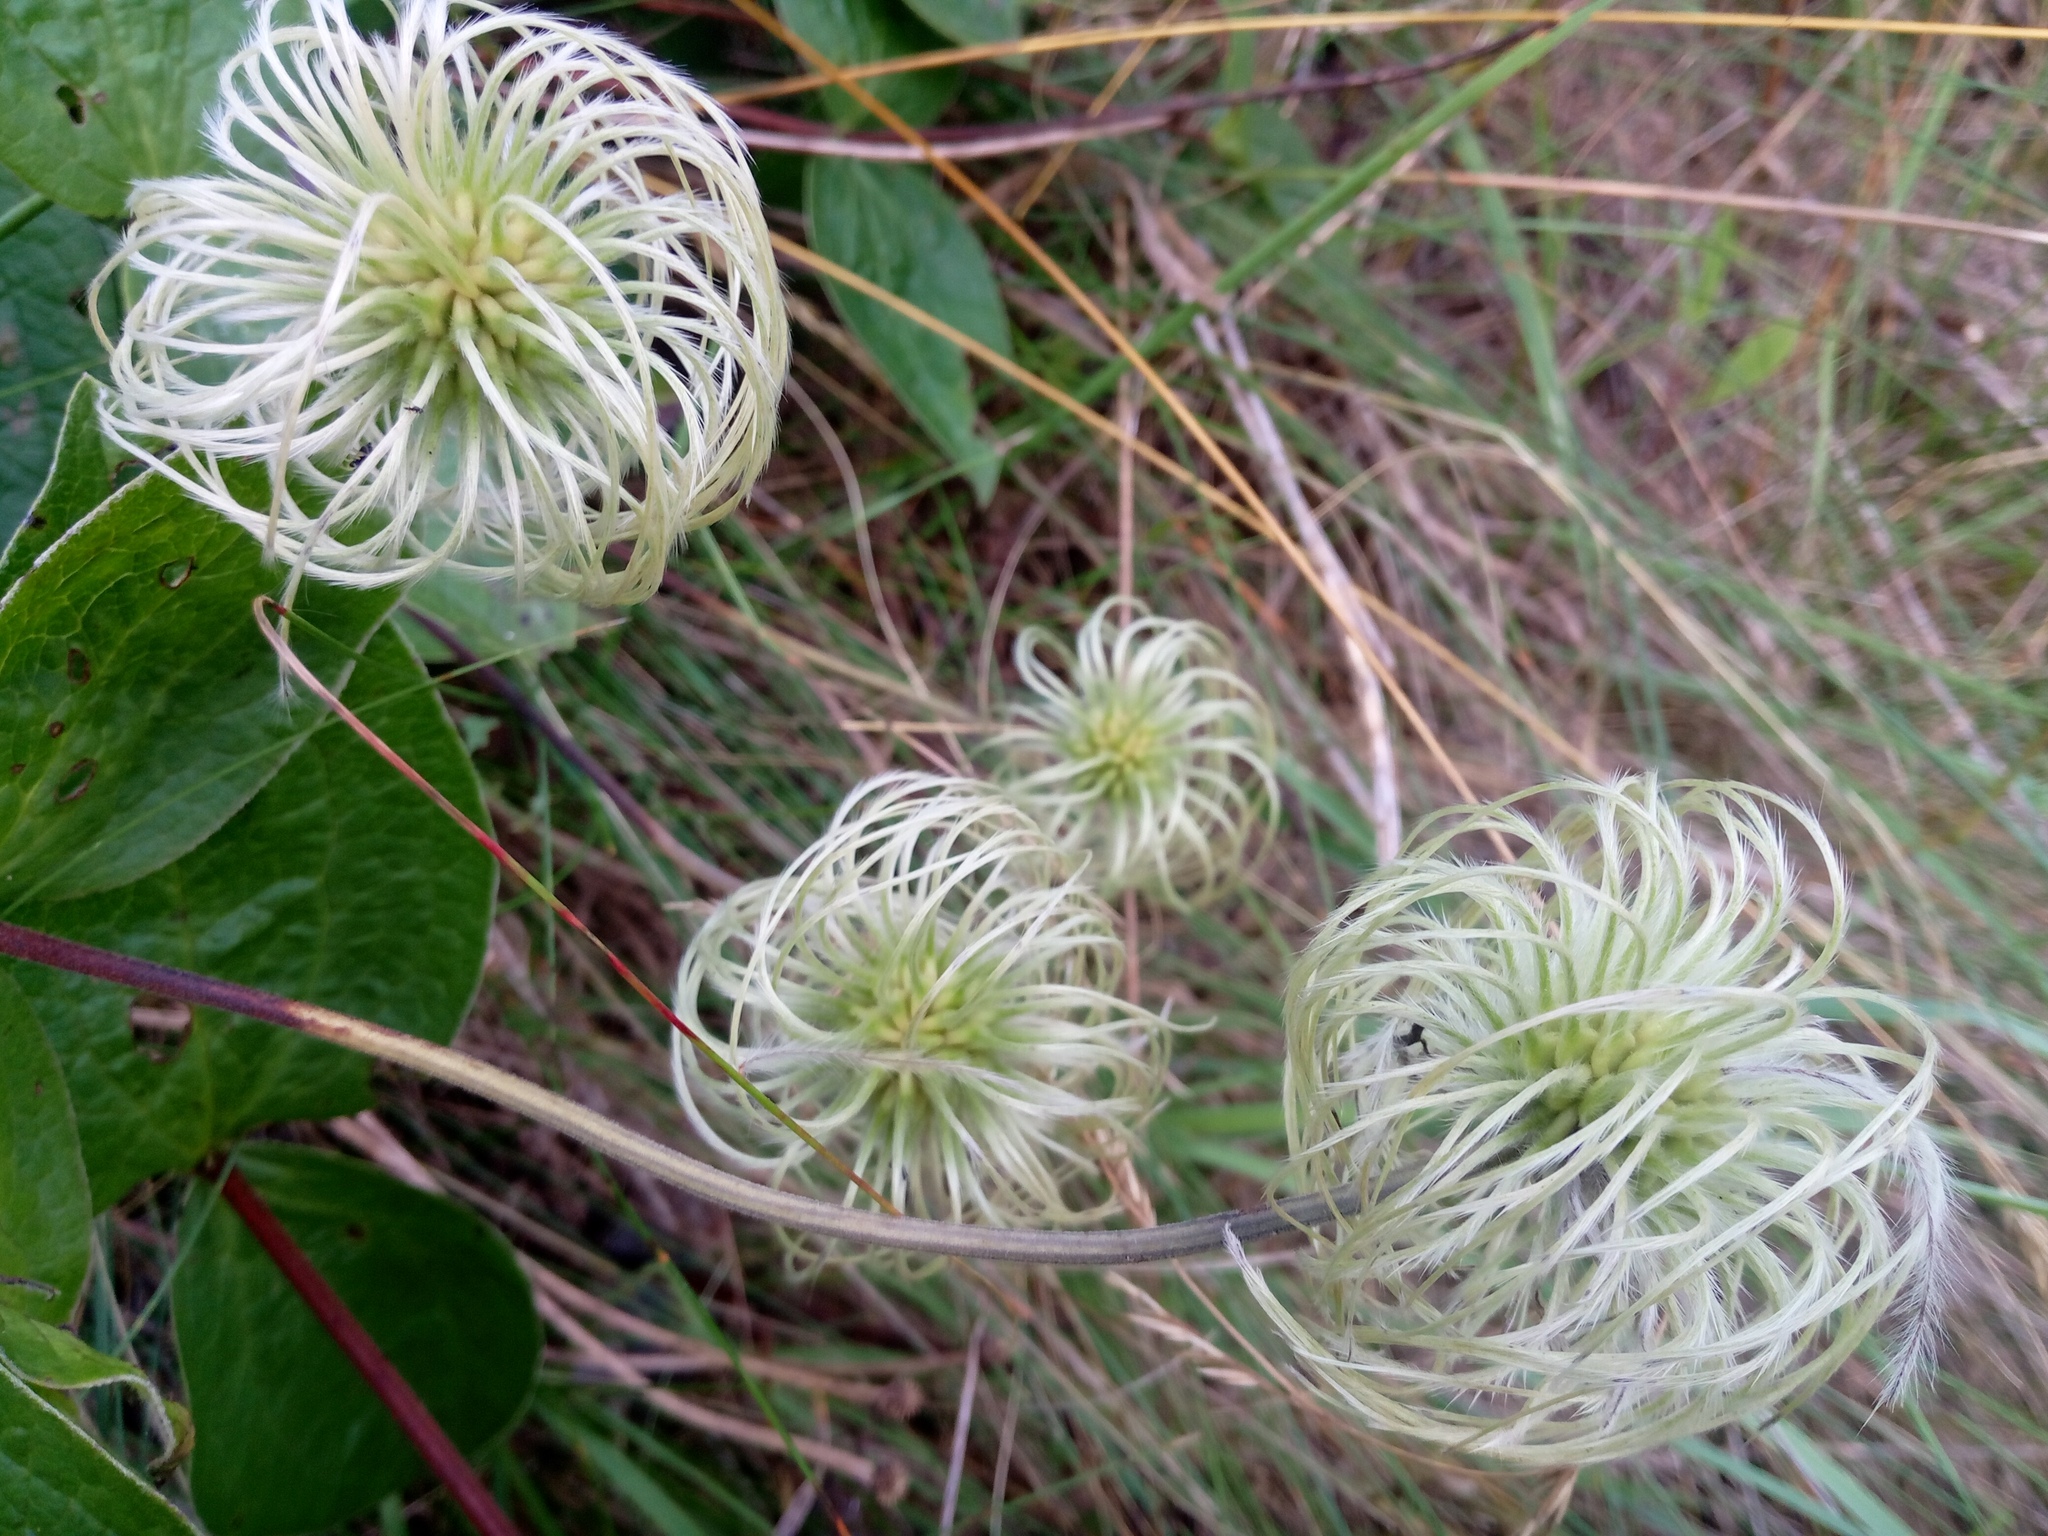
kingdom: Plantae
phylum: Tracheophyta
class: Magnoliopsida
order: Ranunculales
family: Ranunculaceae
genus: Clematis
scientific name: Clematis integrifolia
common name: Solitary clematis
